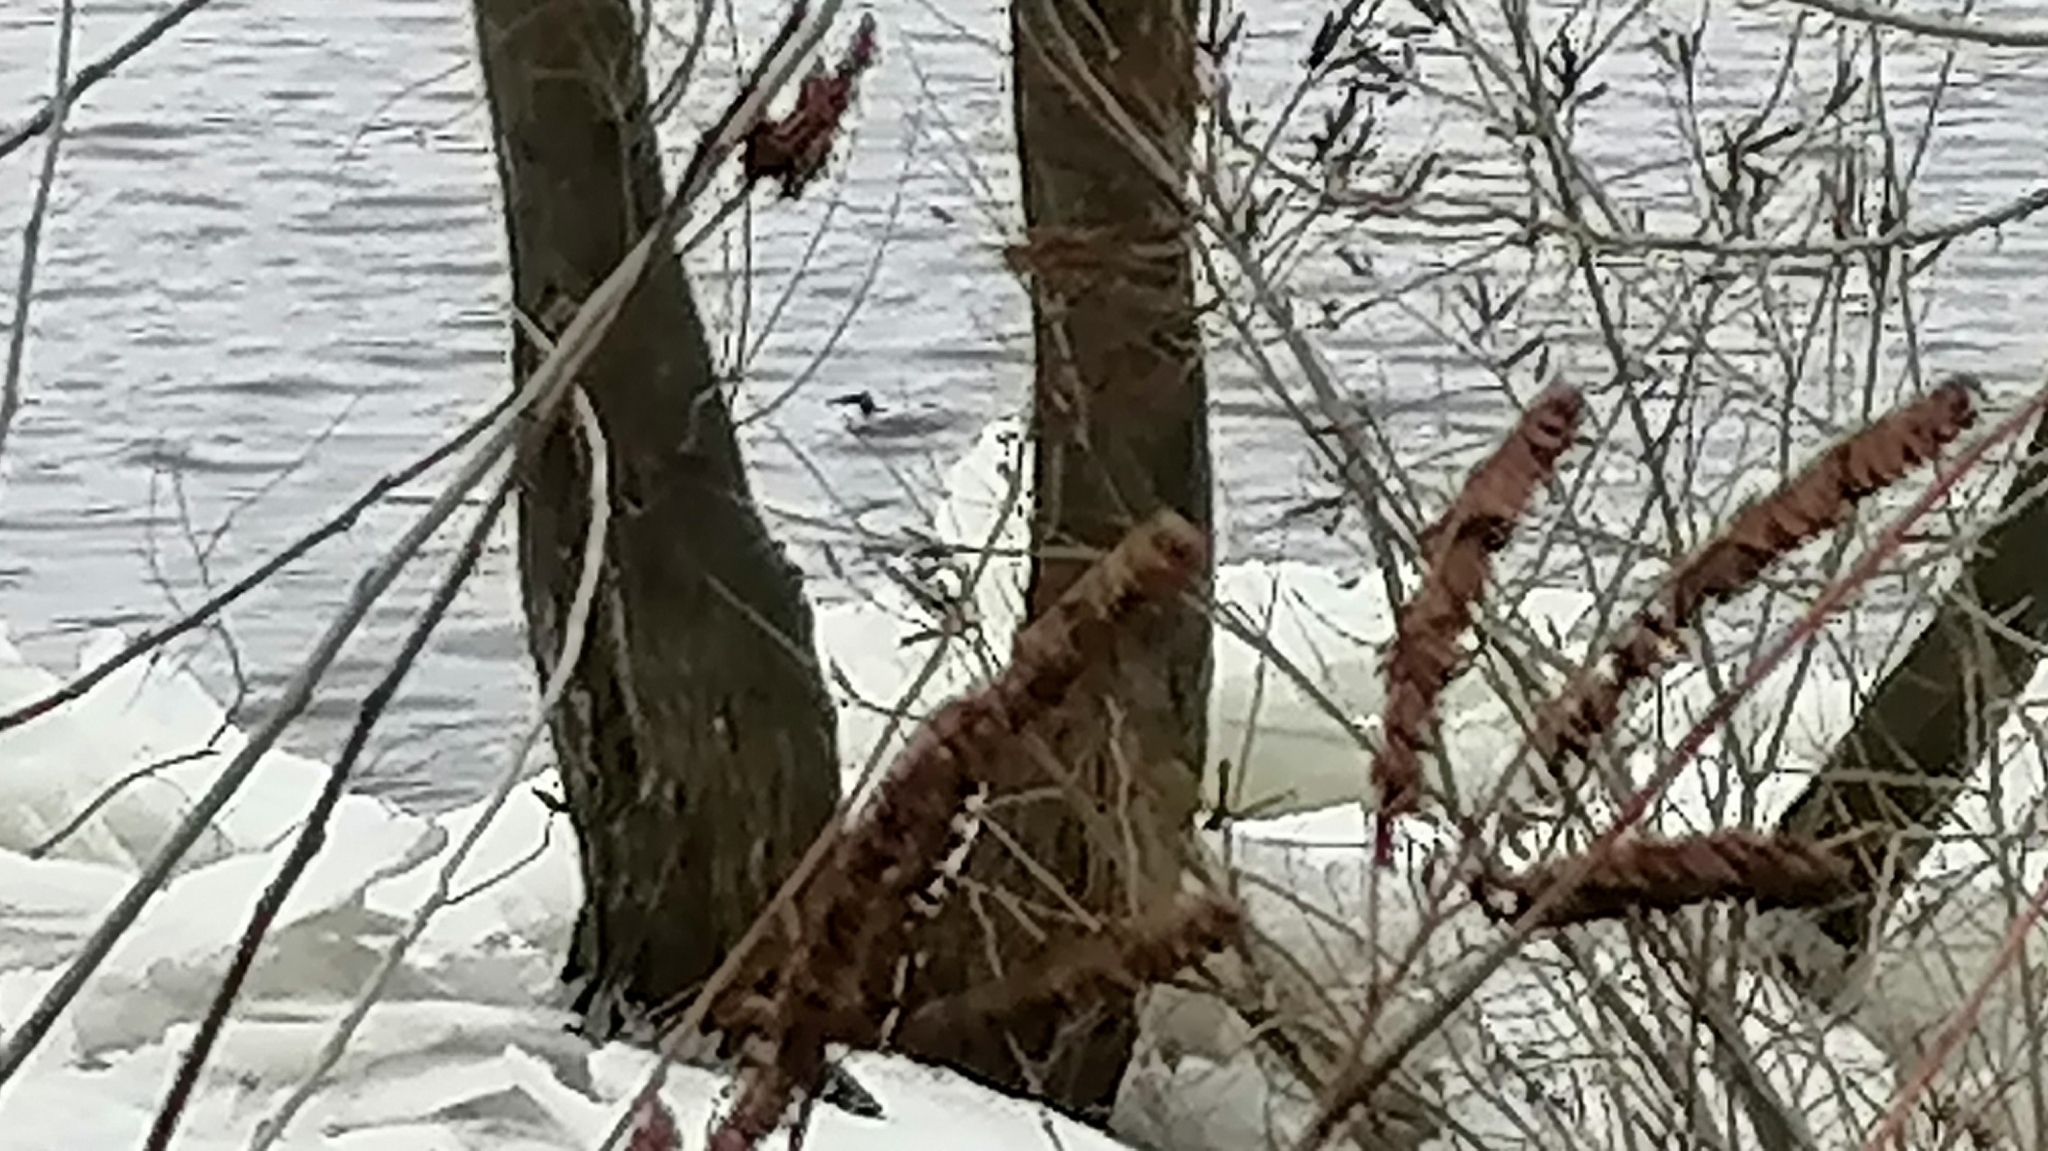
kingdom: Animalia
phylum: Chordata
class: Aves
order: Anseriformes
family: Anatidae
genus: Mergus
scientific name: Mergus merganser
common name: Common merganser
